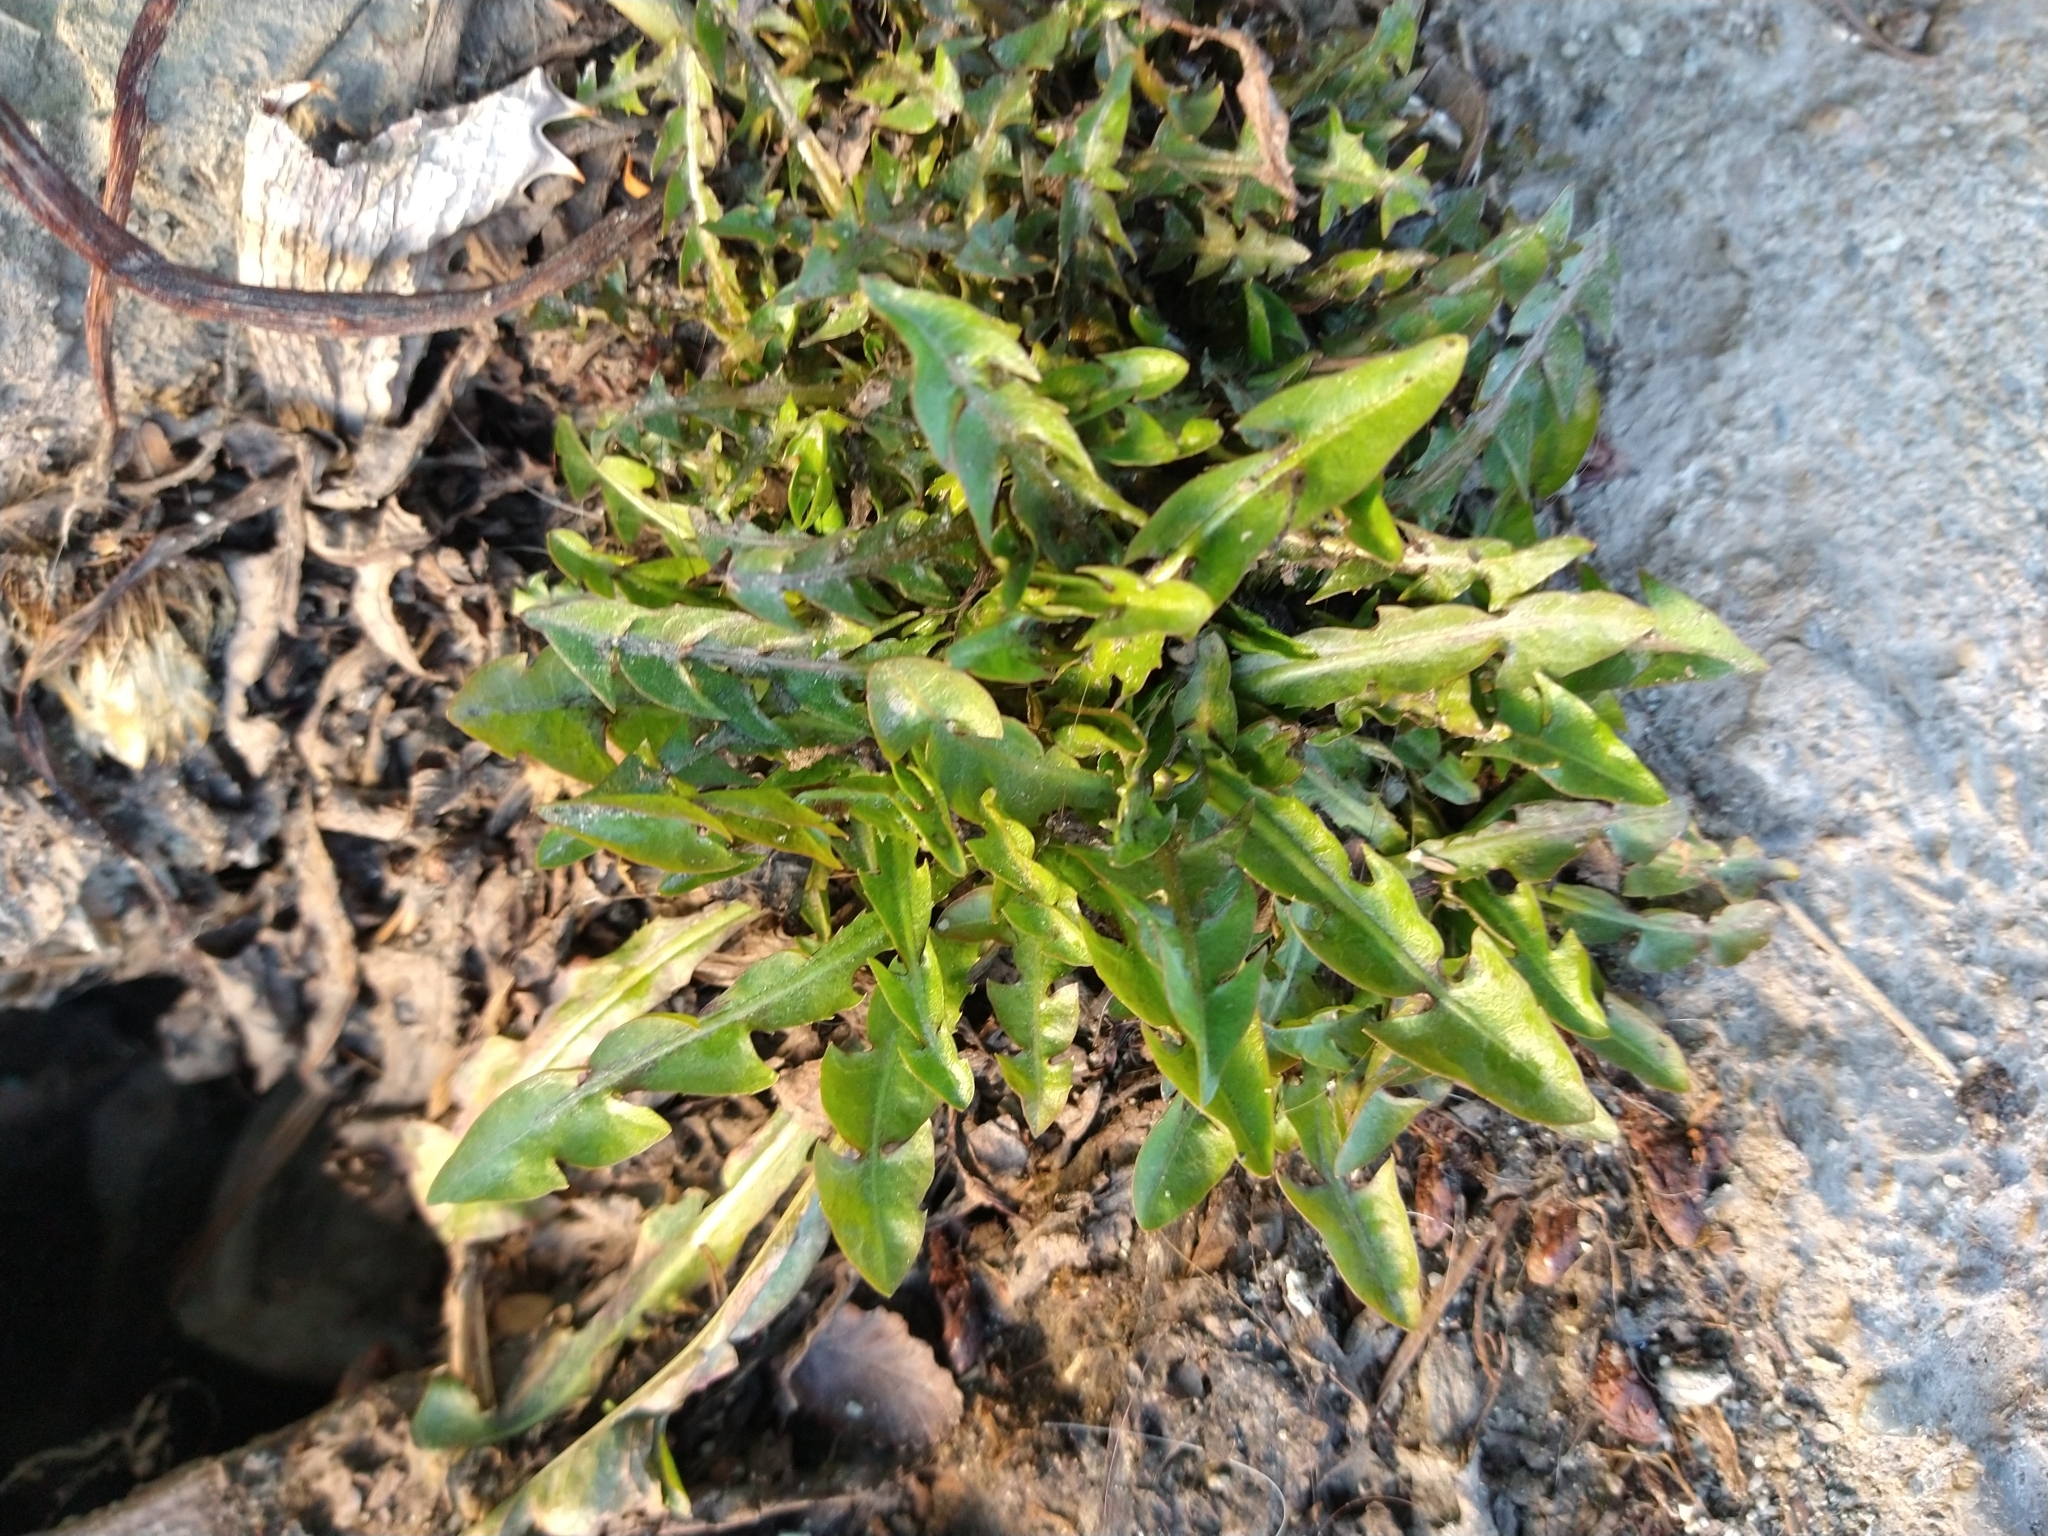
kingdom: Plantae
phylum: Tracheophyta
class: Magnoliopsida
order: Asterales
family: Asteraceae
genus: Taraxacum
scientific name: Taraxacum officinale
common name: Common dandelion
